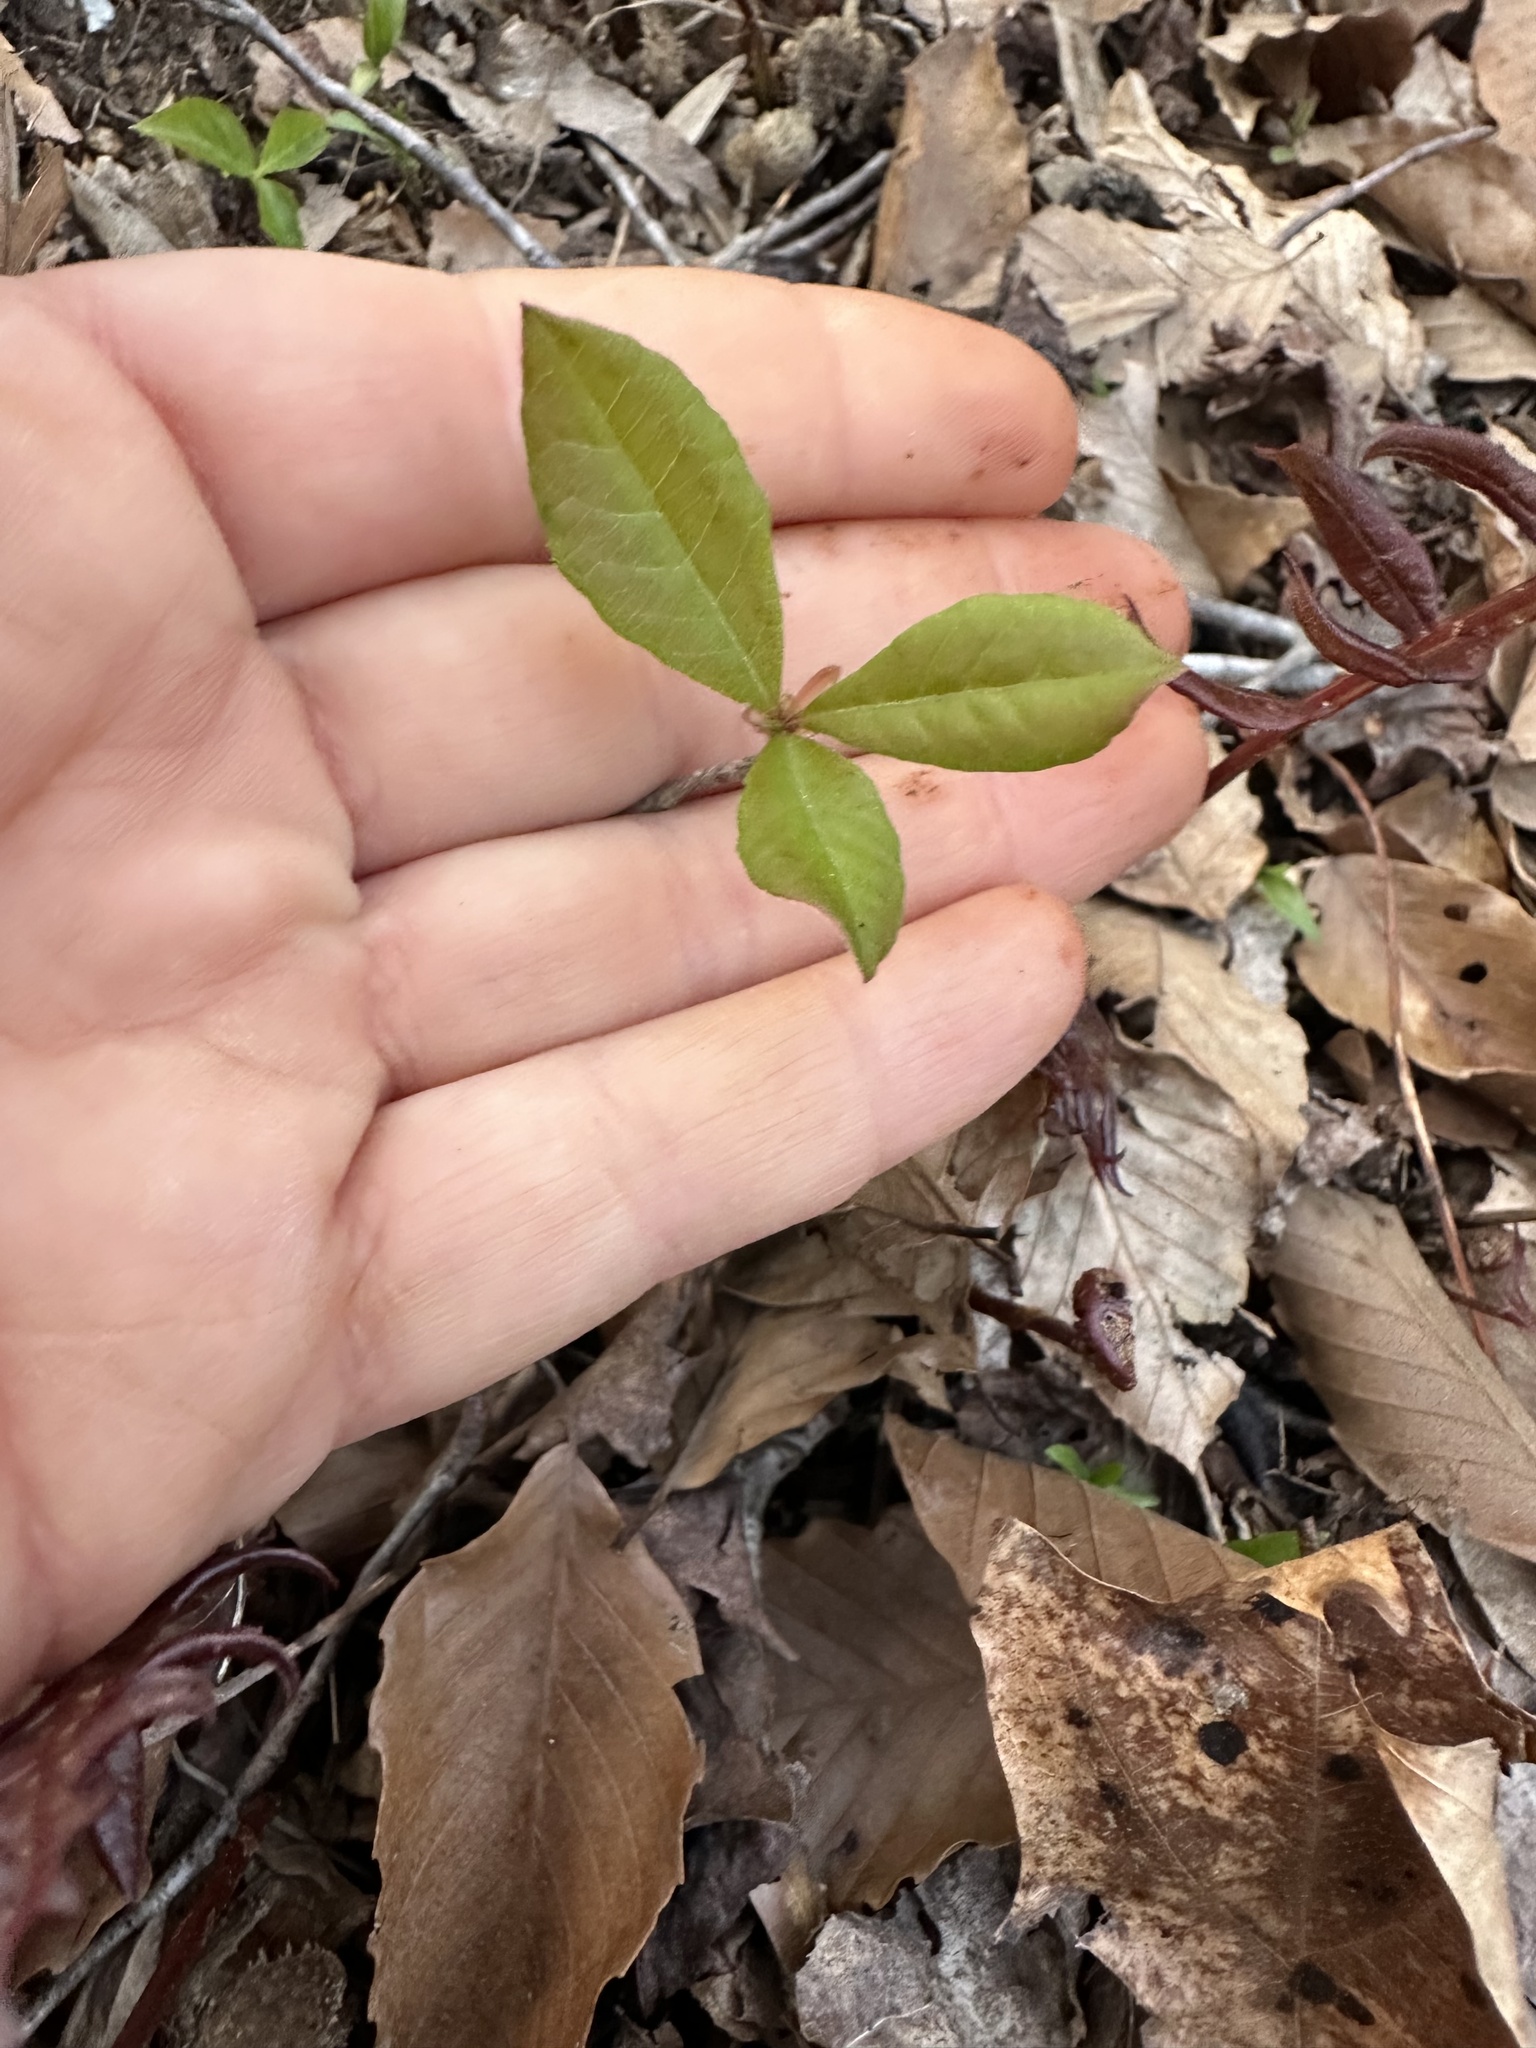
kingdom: Plantae
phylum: Tracheophyta
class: Magnoliopsida
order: Cornales
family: Nyssaceae
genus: Nyssa
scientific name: Nyssa sylvatica
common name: Black tupelo
